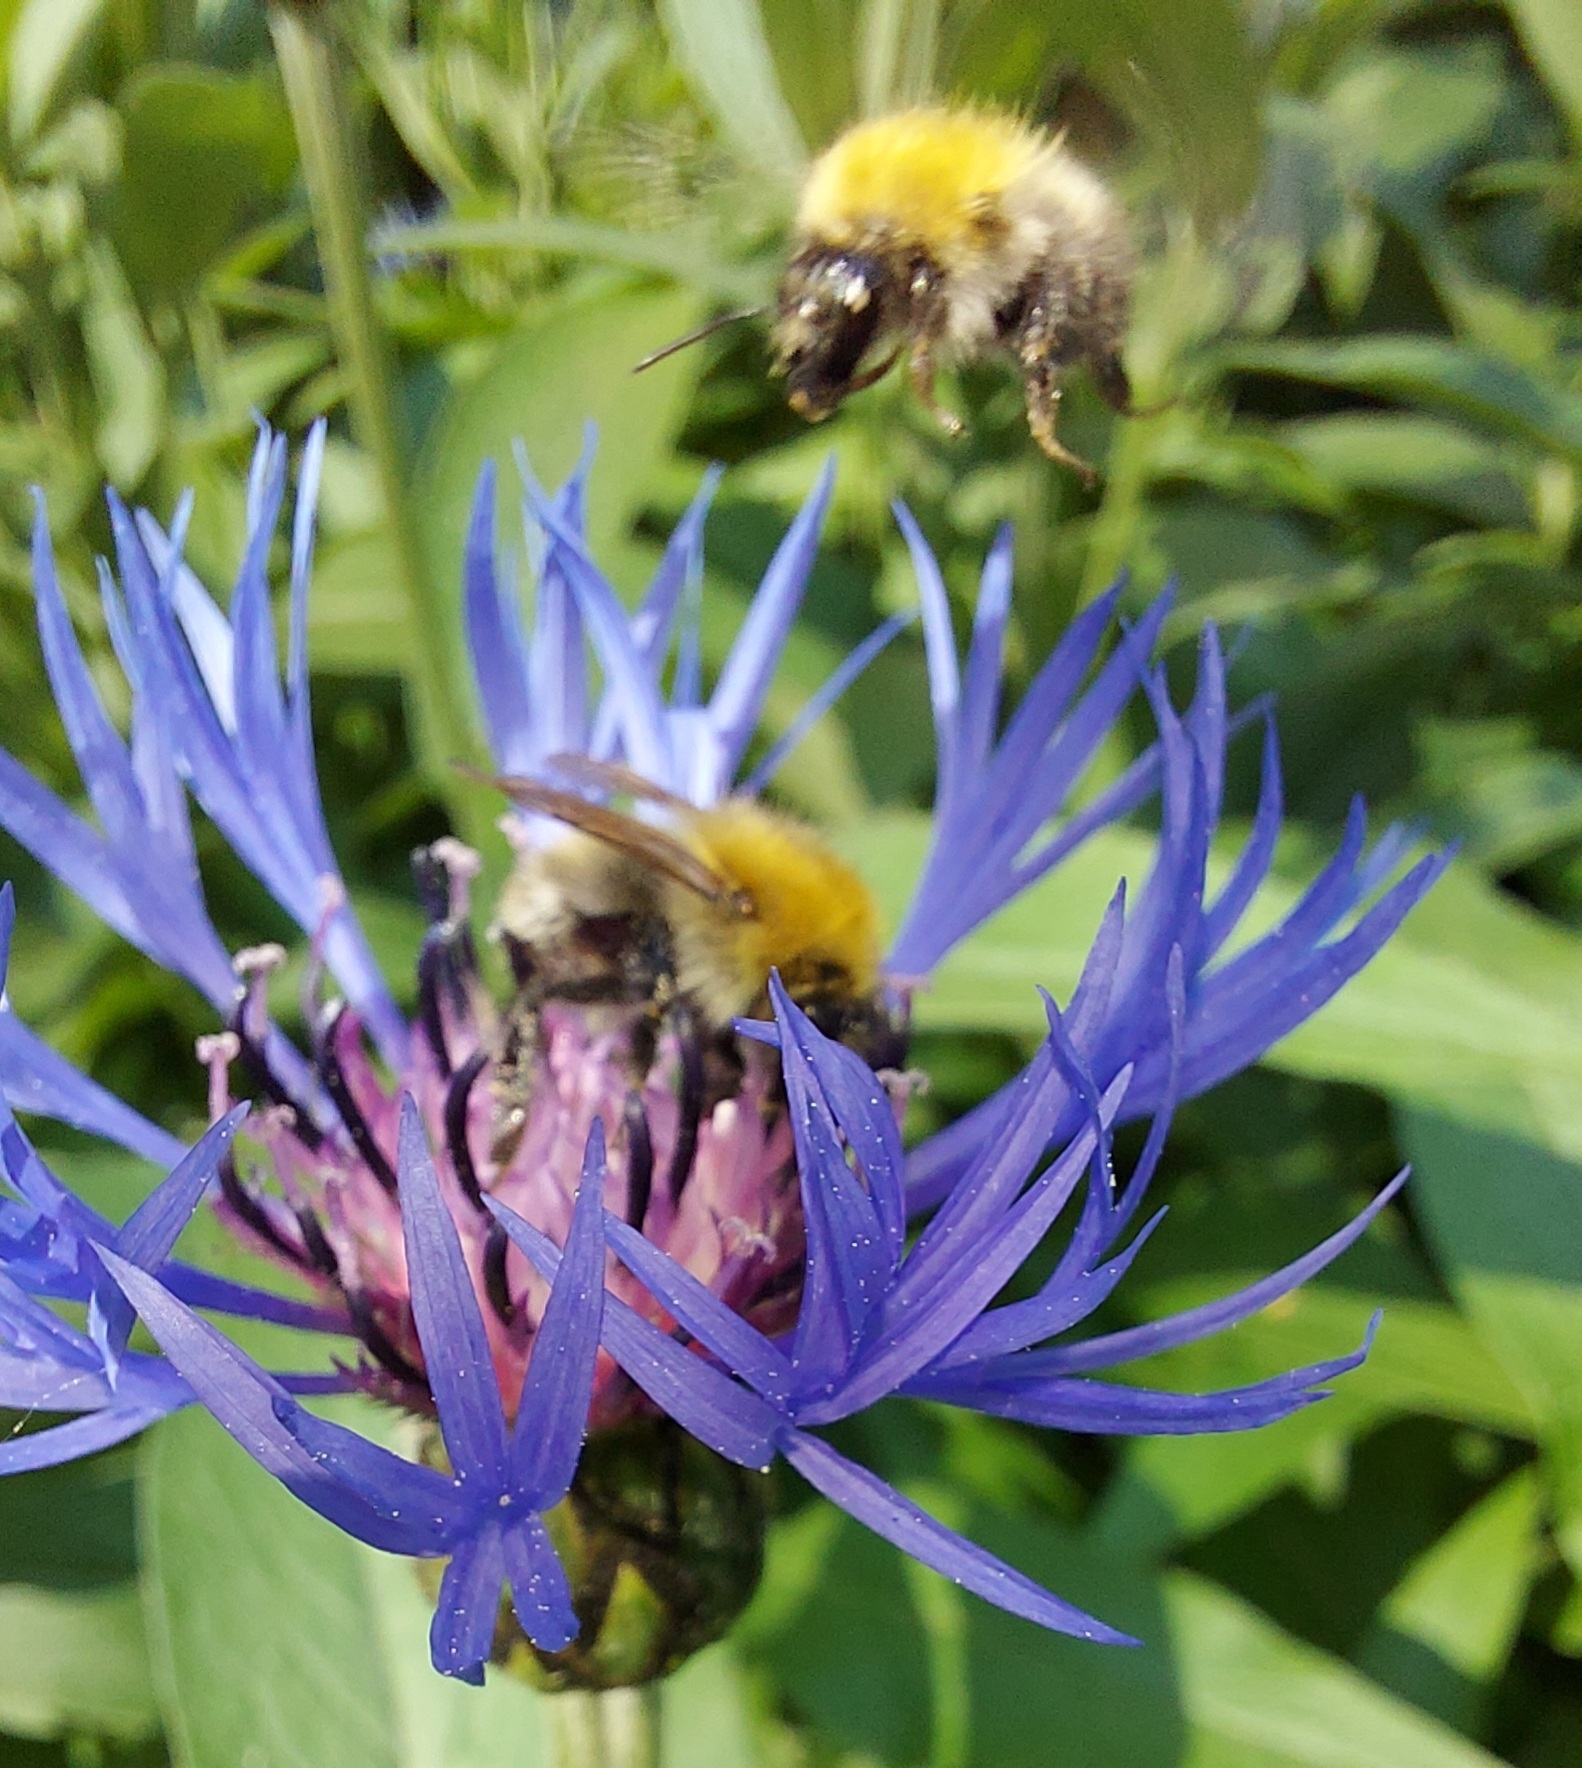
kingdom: Animalia
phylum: Arthropoda
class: Insecta
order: Hymenoptera
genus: Thoracobombus
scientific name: Thoracobombus
